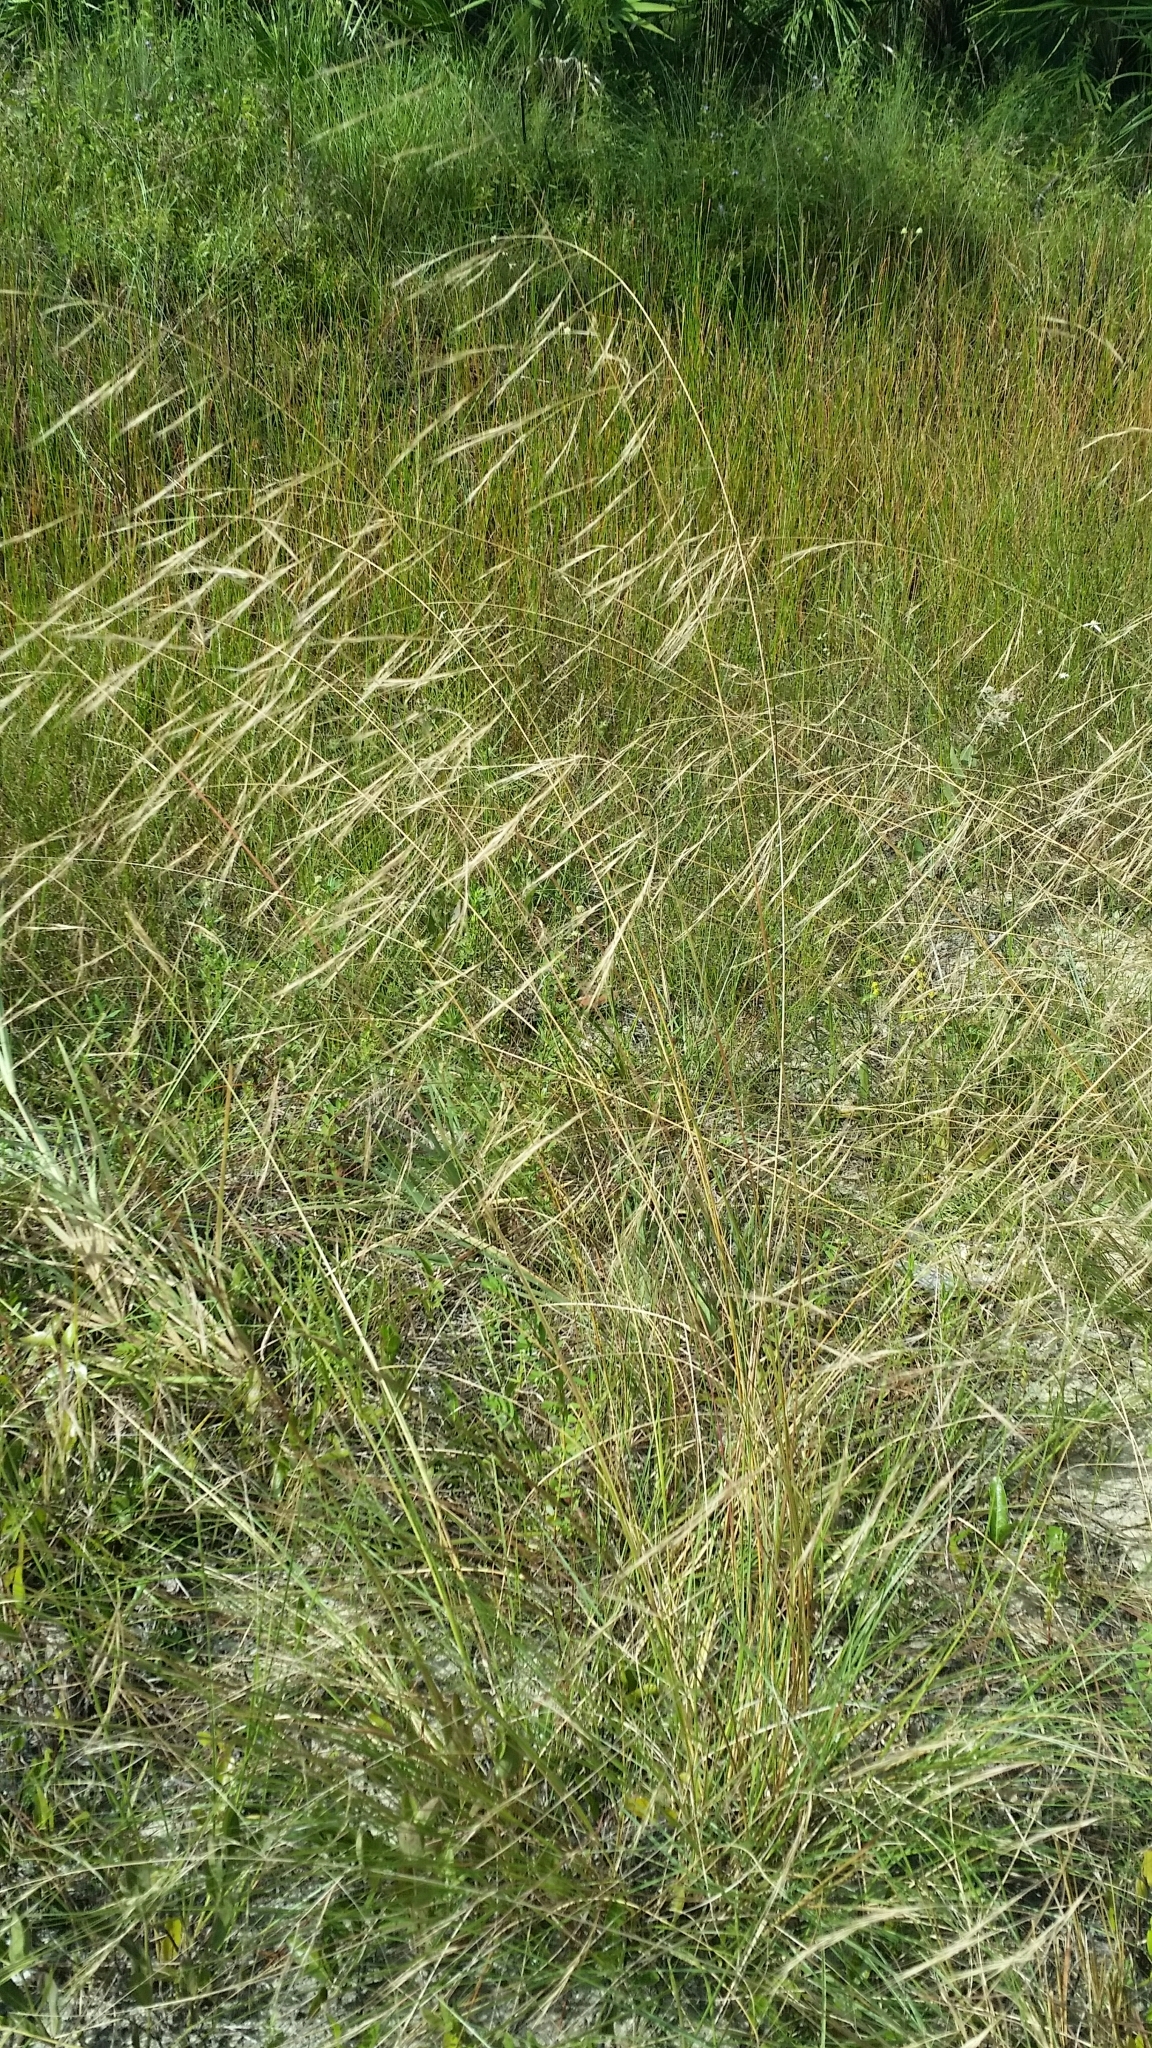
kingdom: Plantae
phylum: Tracheophyta
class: Liliopsida
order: Poales
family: Poaceae
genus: Aristida
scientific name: Aristida patula
